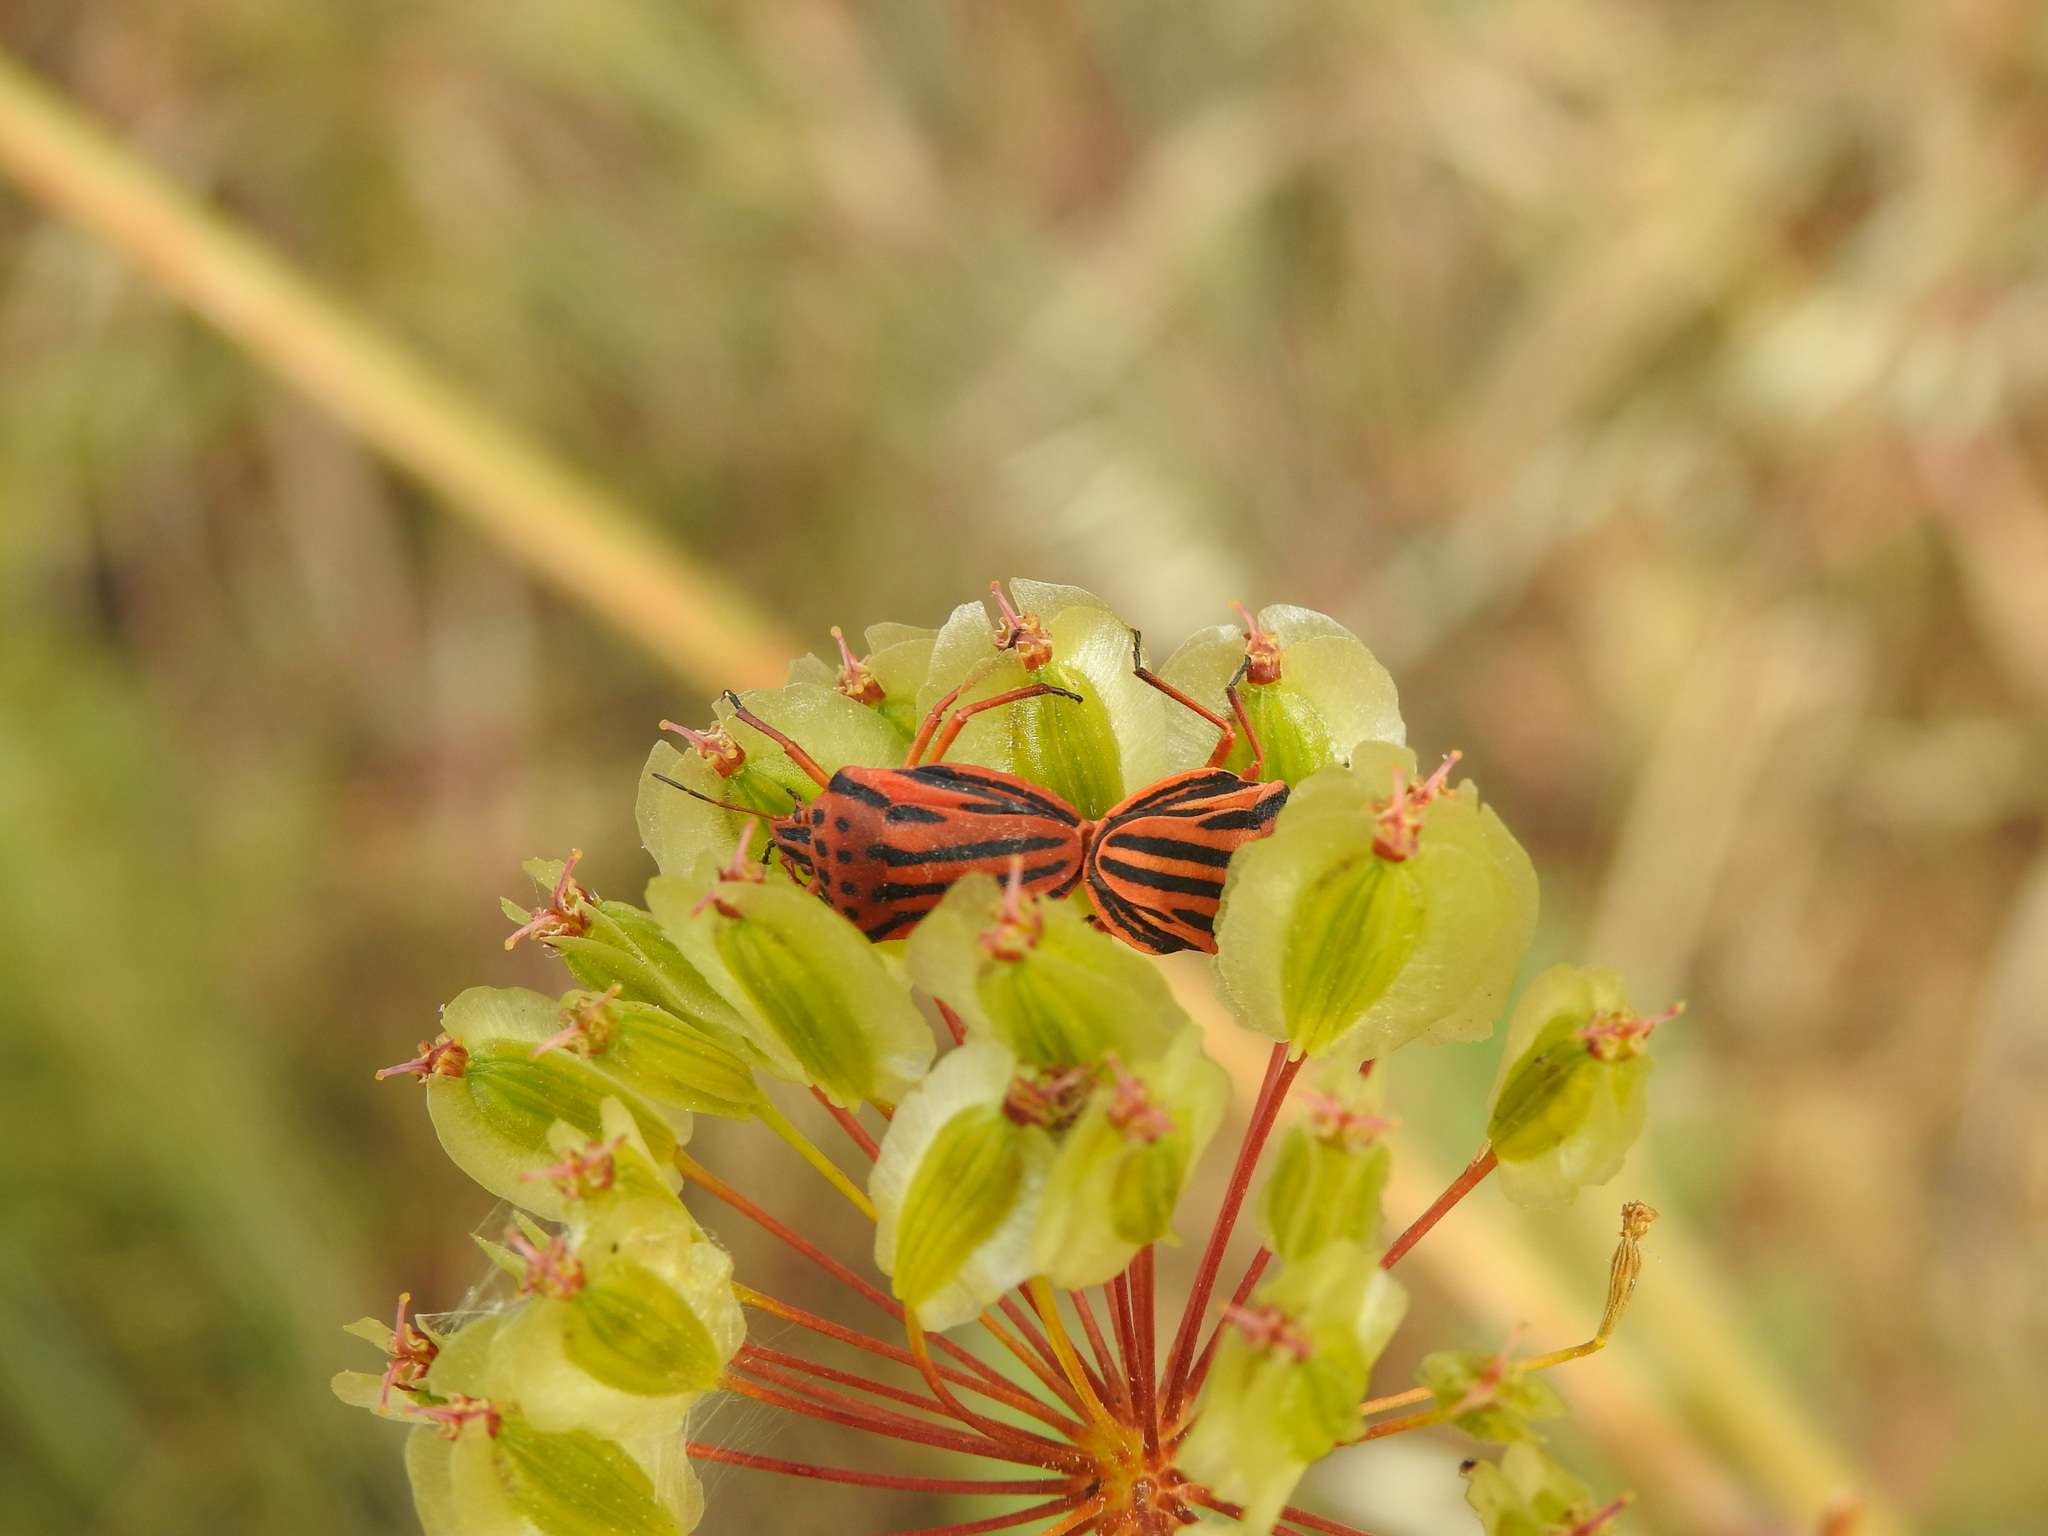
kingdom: Animalia
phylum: Arthropoda
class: Insecta
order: Hemiptera
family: Pentatomidae
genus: Graphosoma
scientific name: Graphosoma semipunctatum
